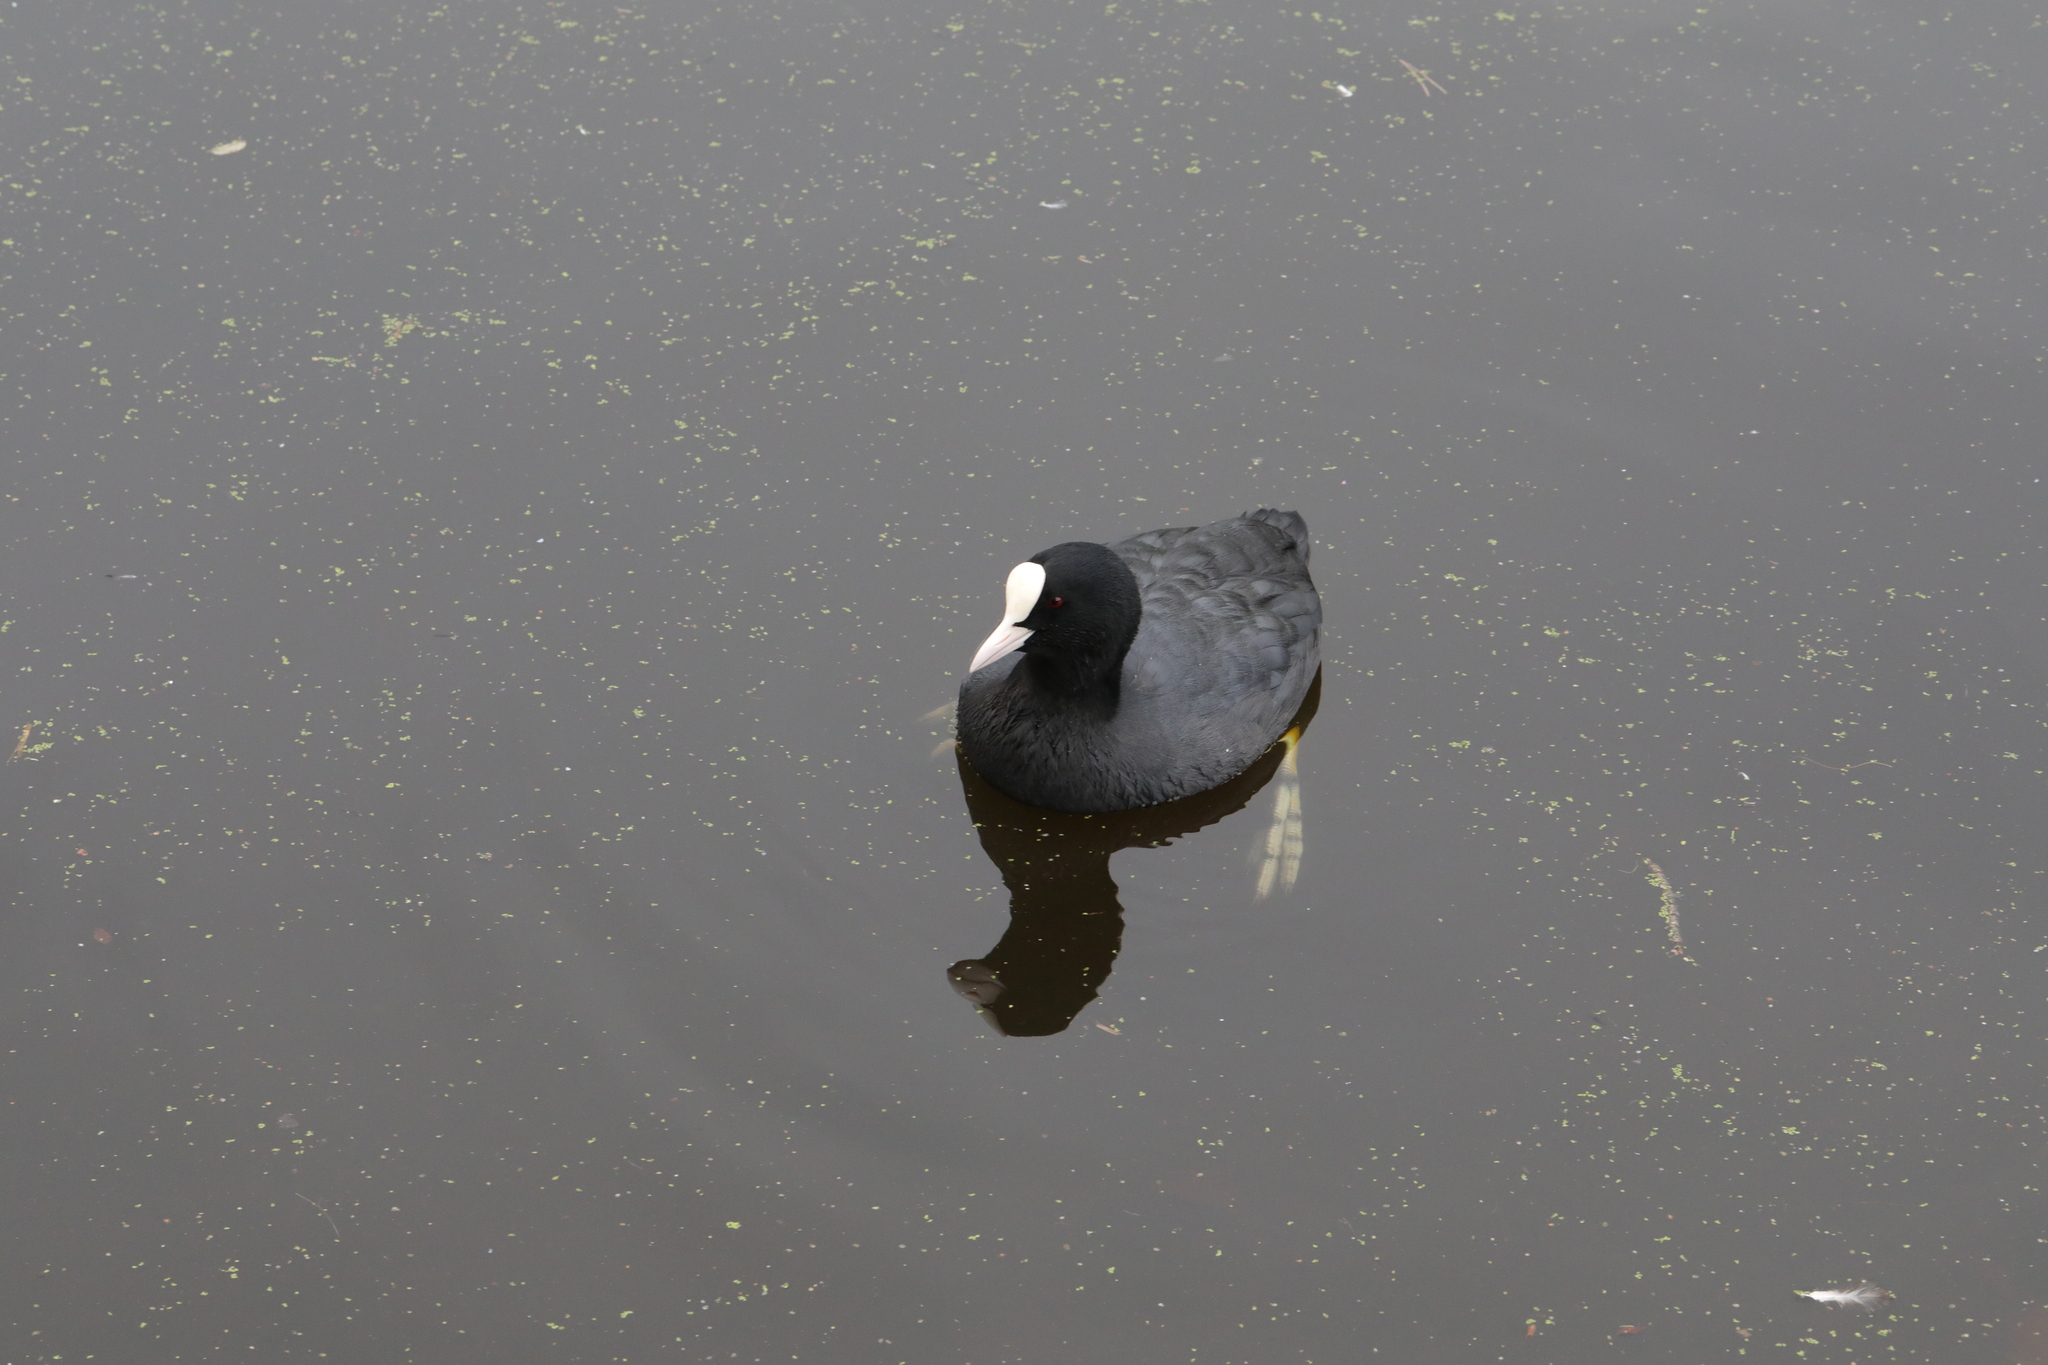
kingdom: Animalia
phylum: Chordata
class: Aves
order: Gruiformes
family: Rallidae
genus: Fulica
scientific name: Fulica atra
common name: Eurasian coot
